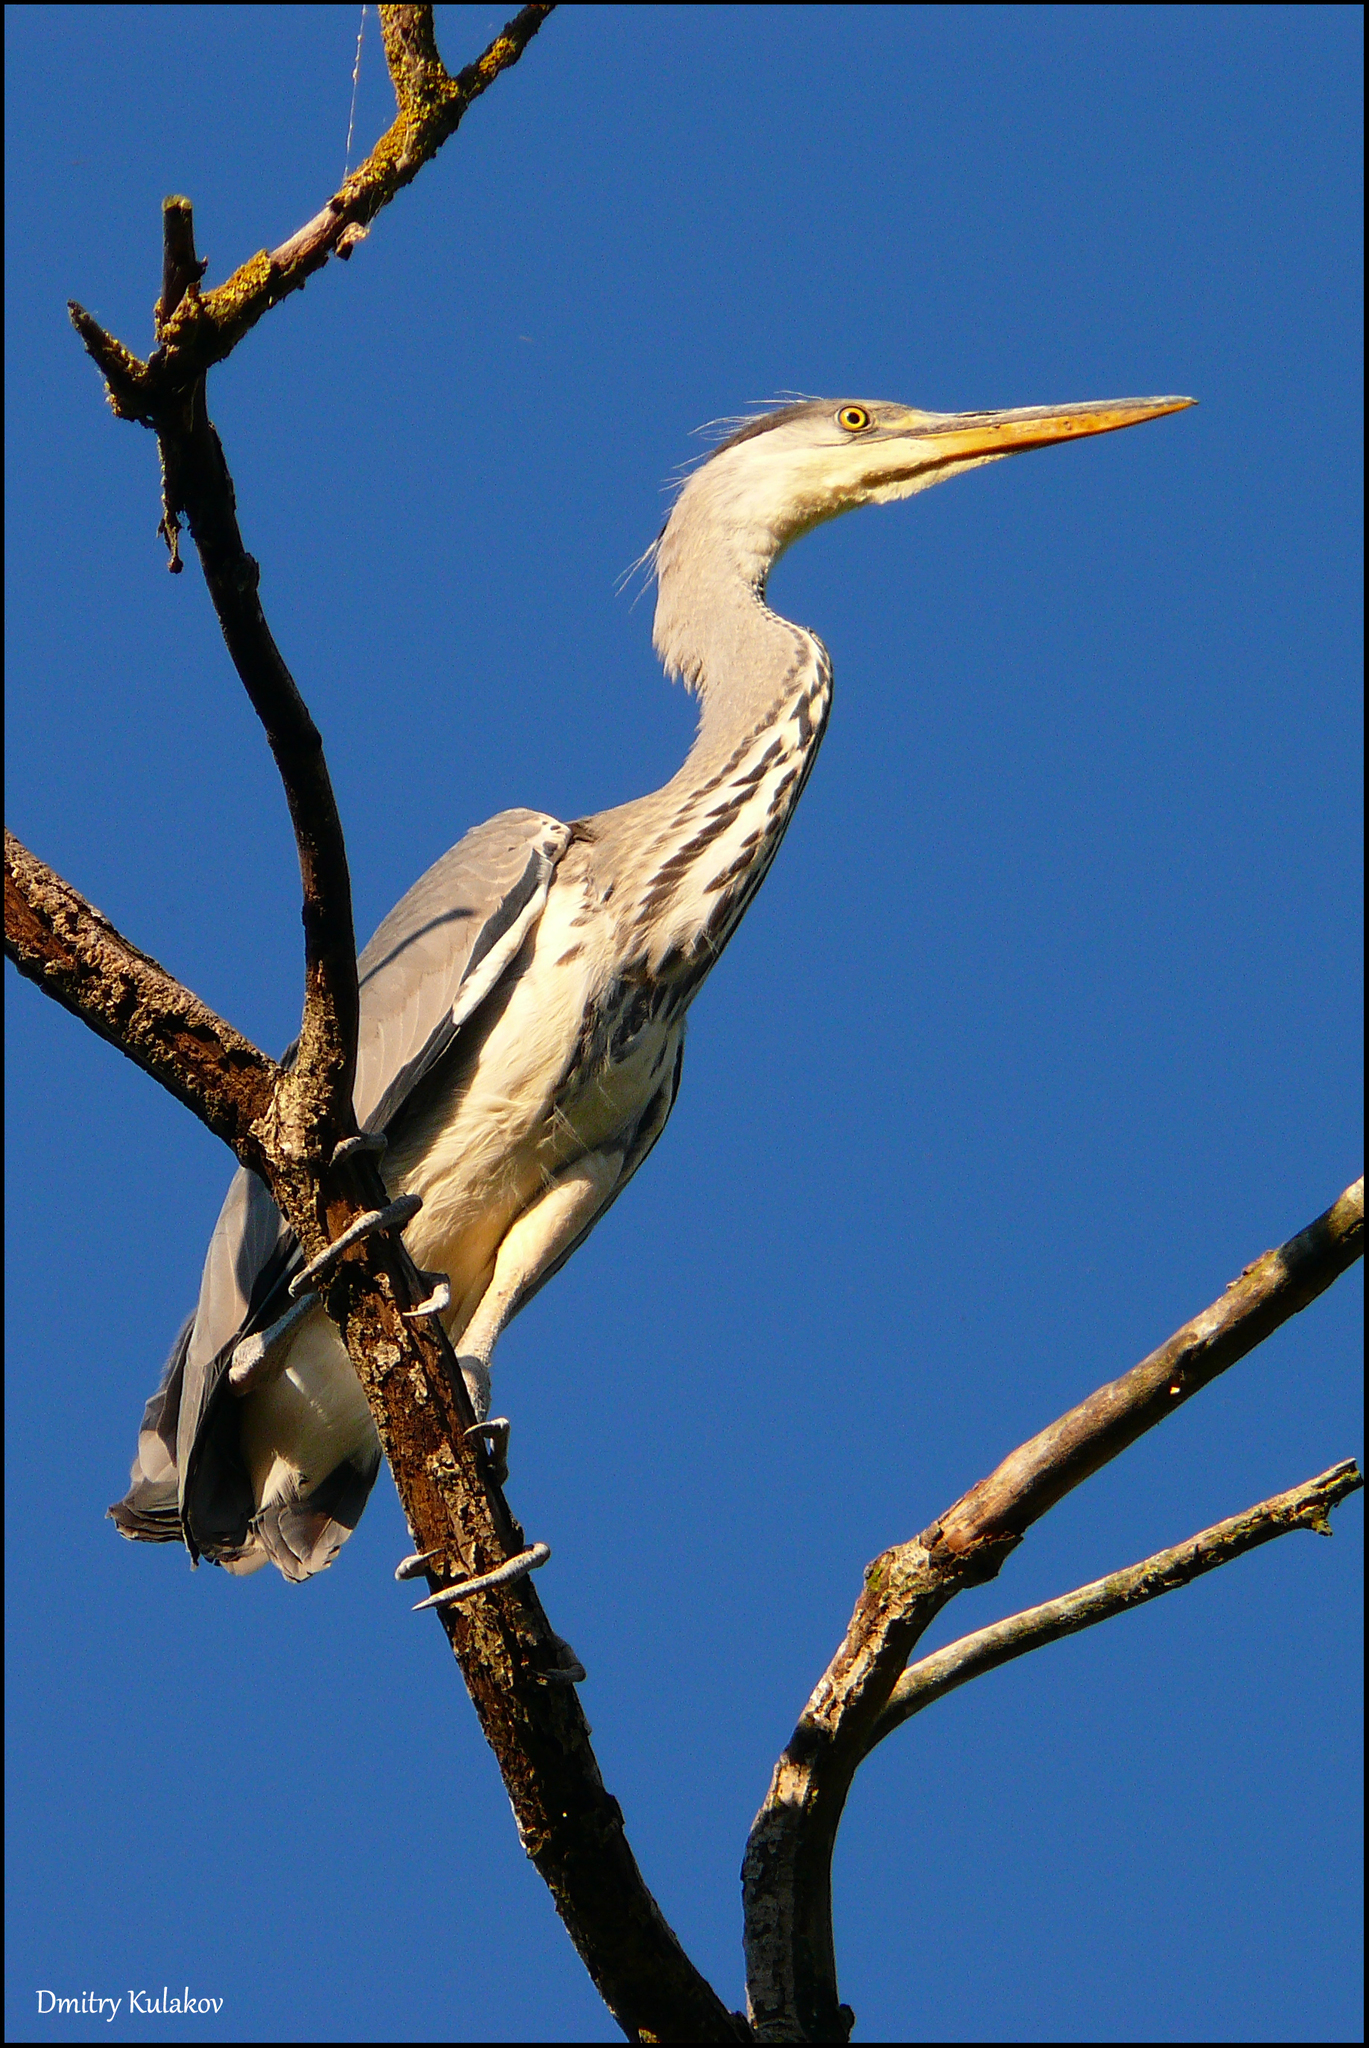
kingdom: Animalia
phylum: Chordata
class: Aves
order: Pelecaniformes
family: Ardeidae
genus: Ardea
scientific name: Ardea cinerea
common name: Grey heron
